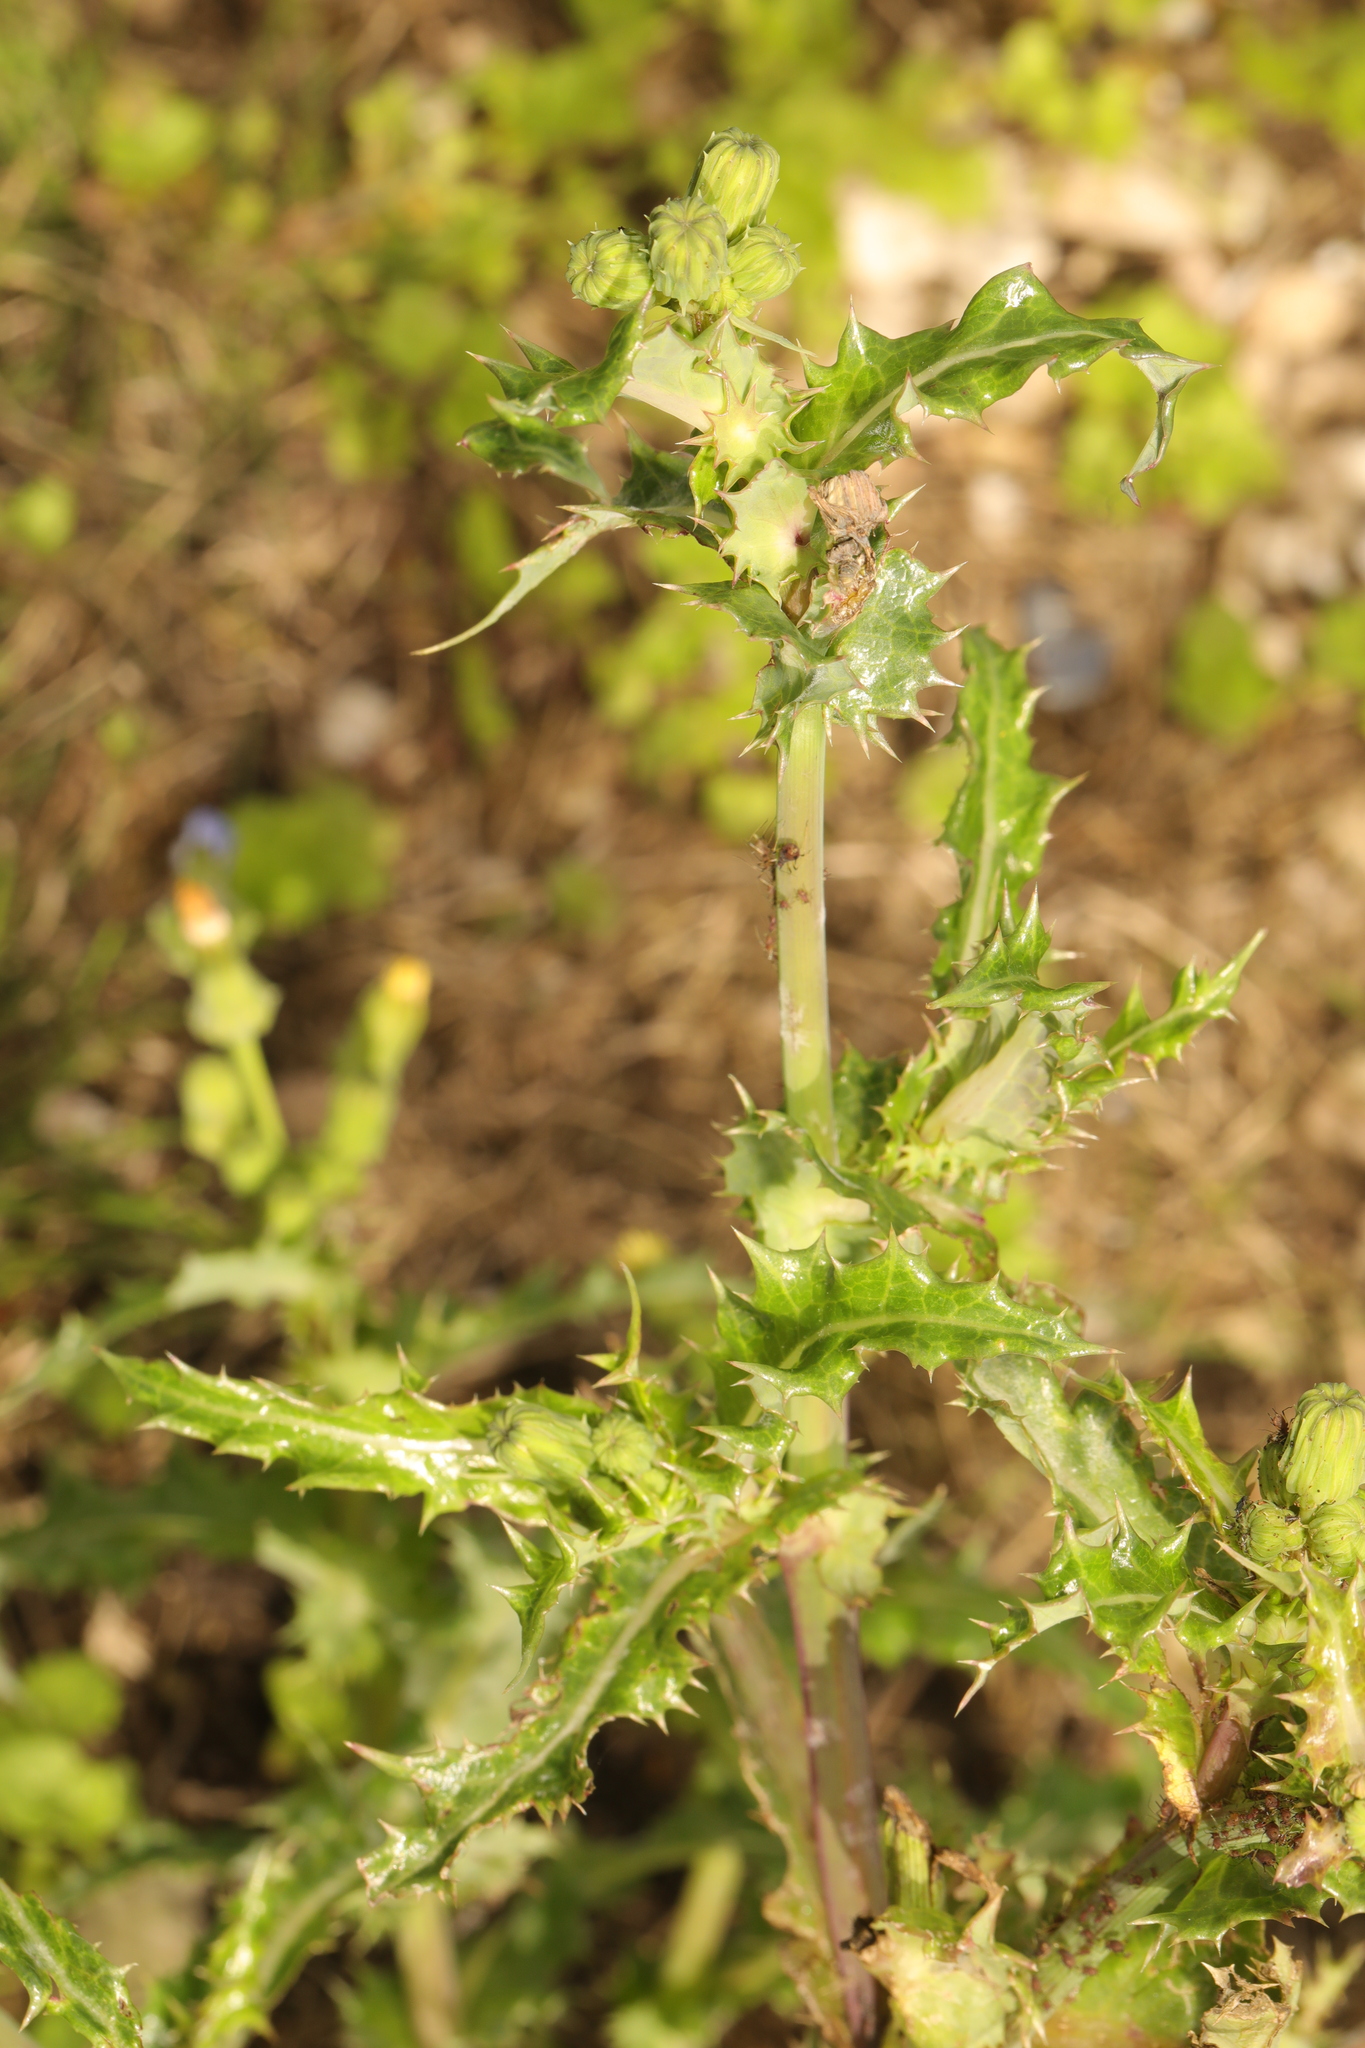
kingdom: Plantae
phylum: Tracheophyta
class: Magnoliopsida
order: Asterales
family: Asteraceae
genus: Sonchus
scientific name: Sonchus asper
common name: Prickly sow-thistle
